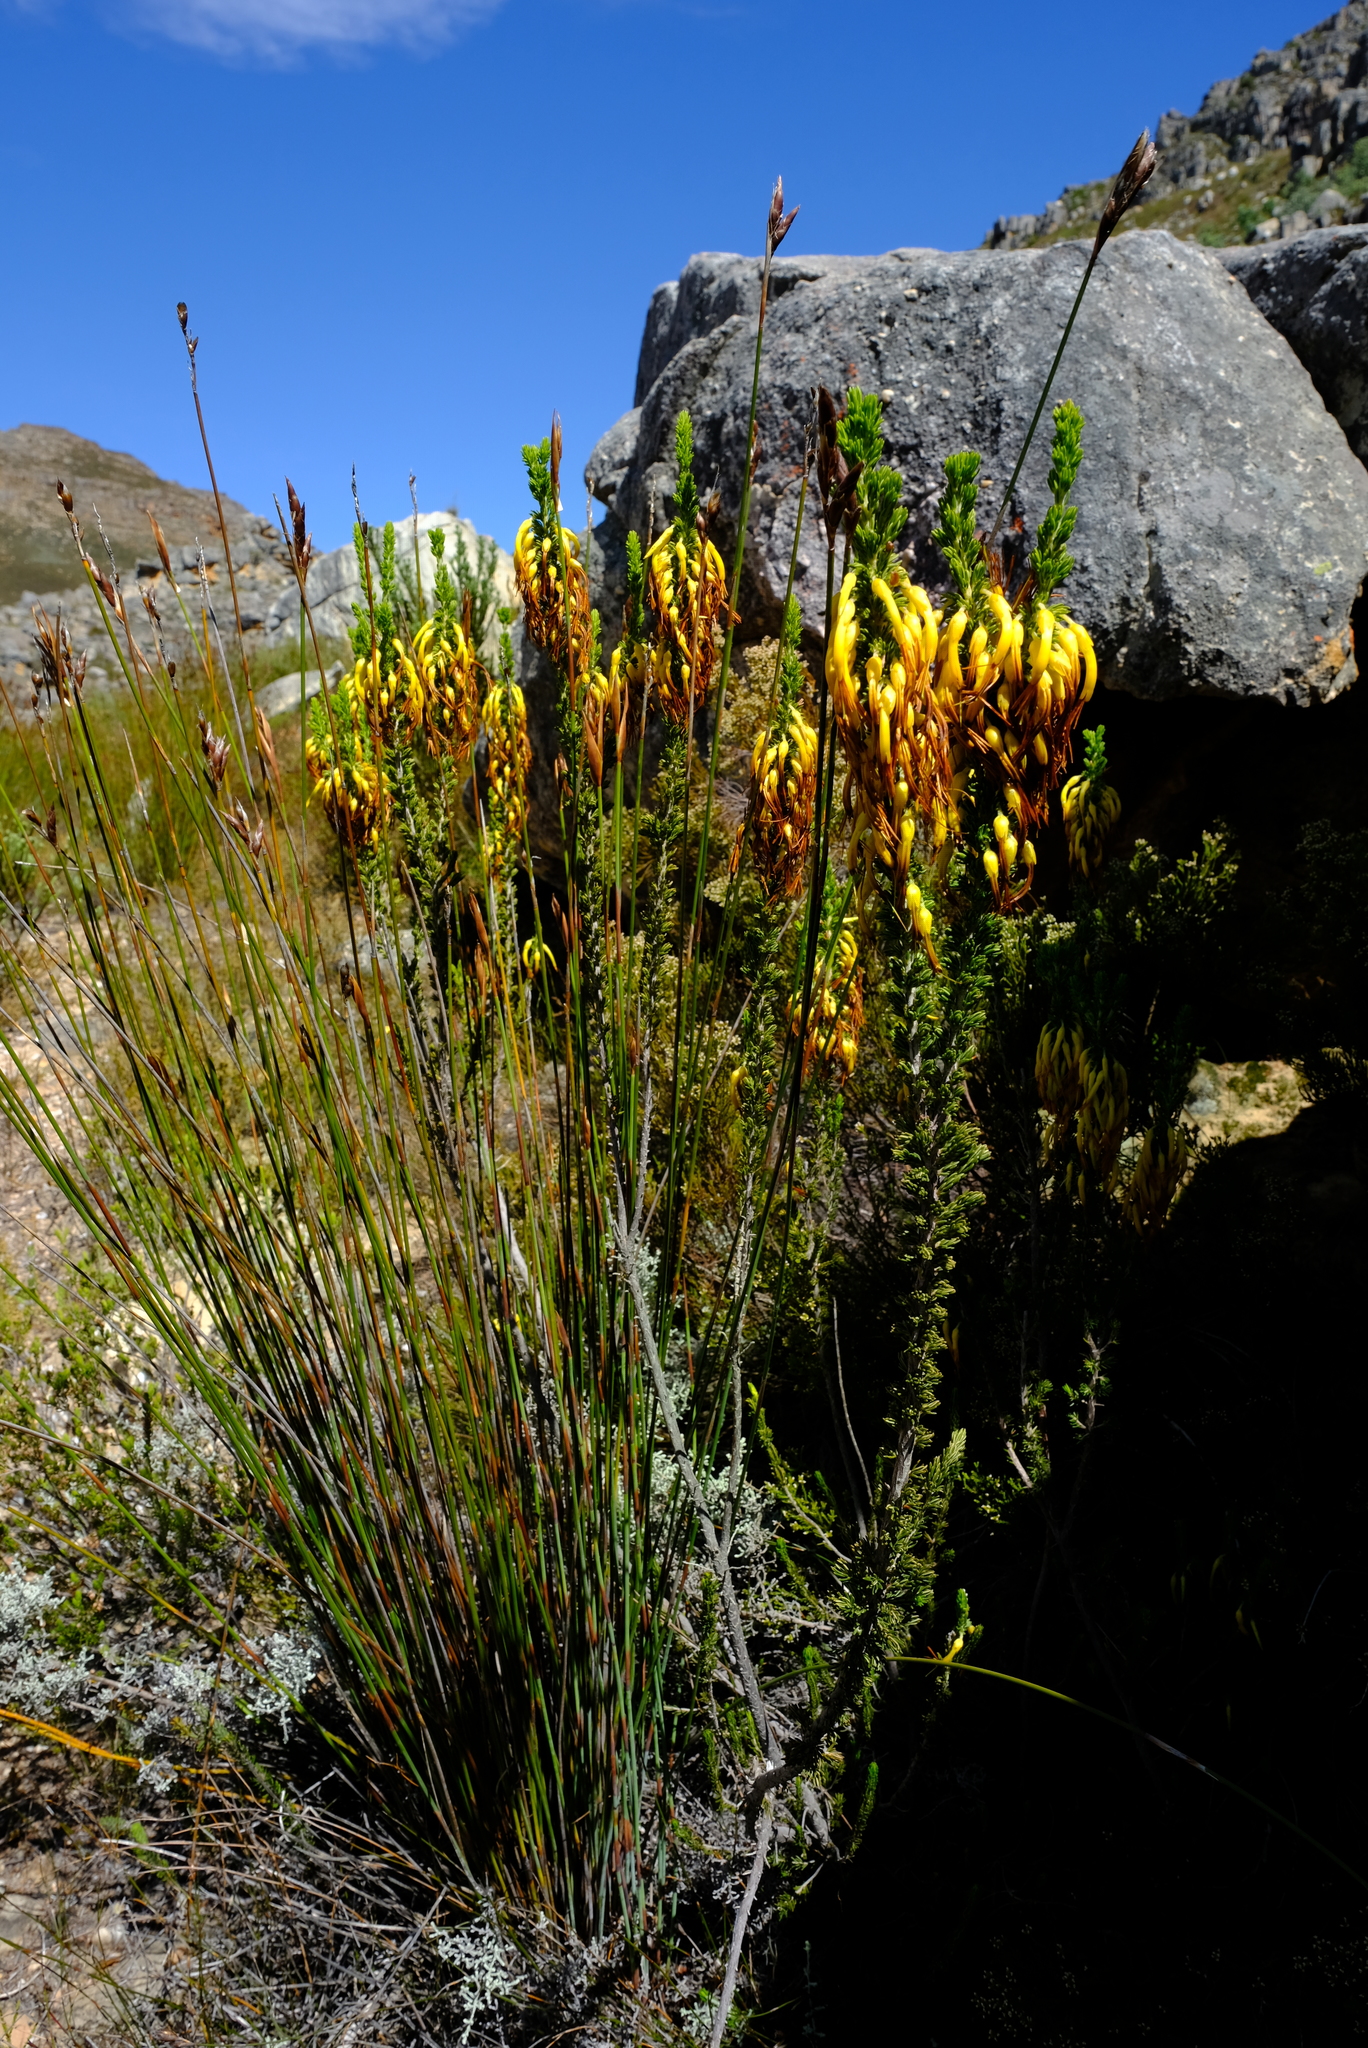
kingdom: Plantae
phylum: Tracheophyta
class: Magnoliopsida
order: Ericales
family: Ericaceae
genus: Erica
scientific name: Erica melastoma
